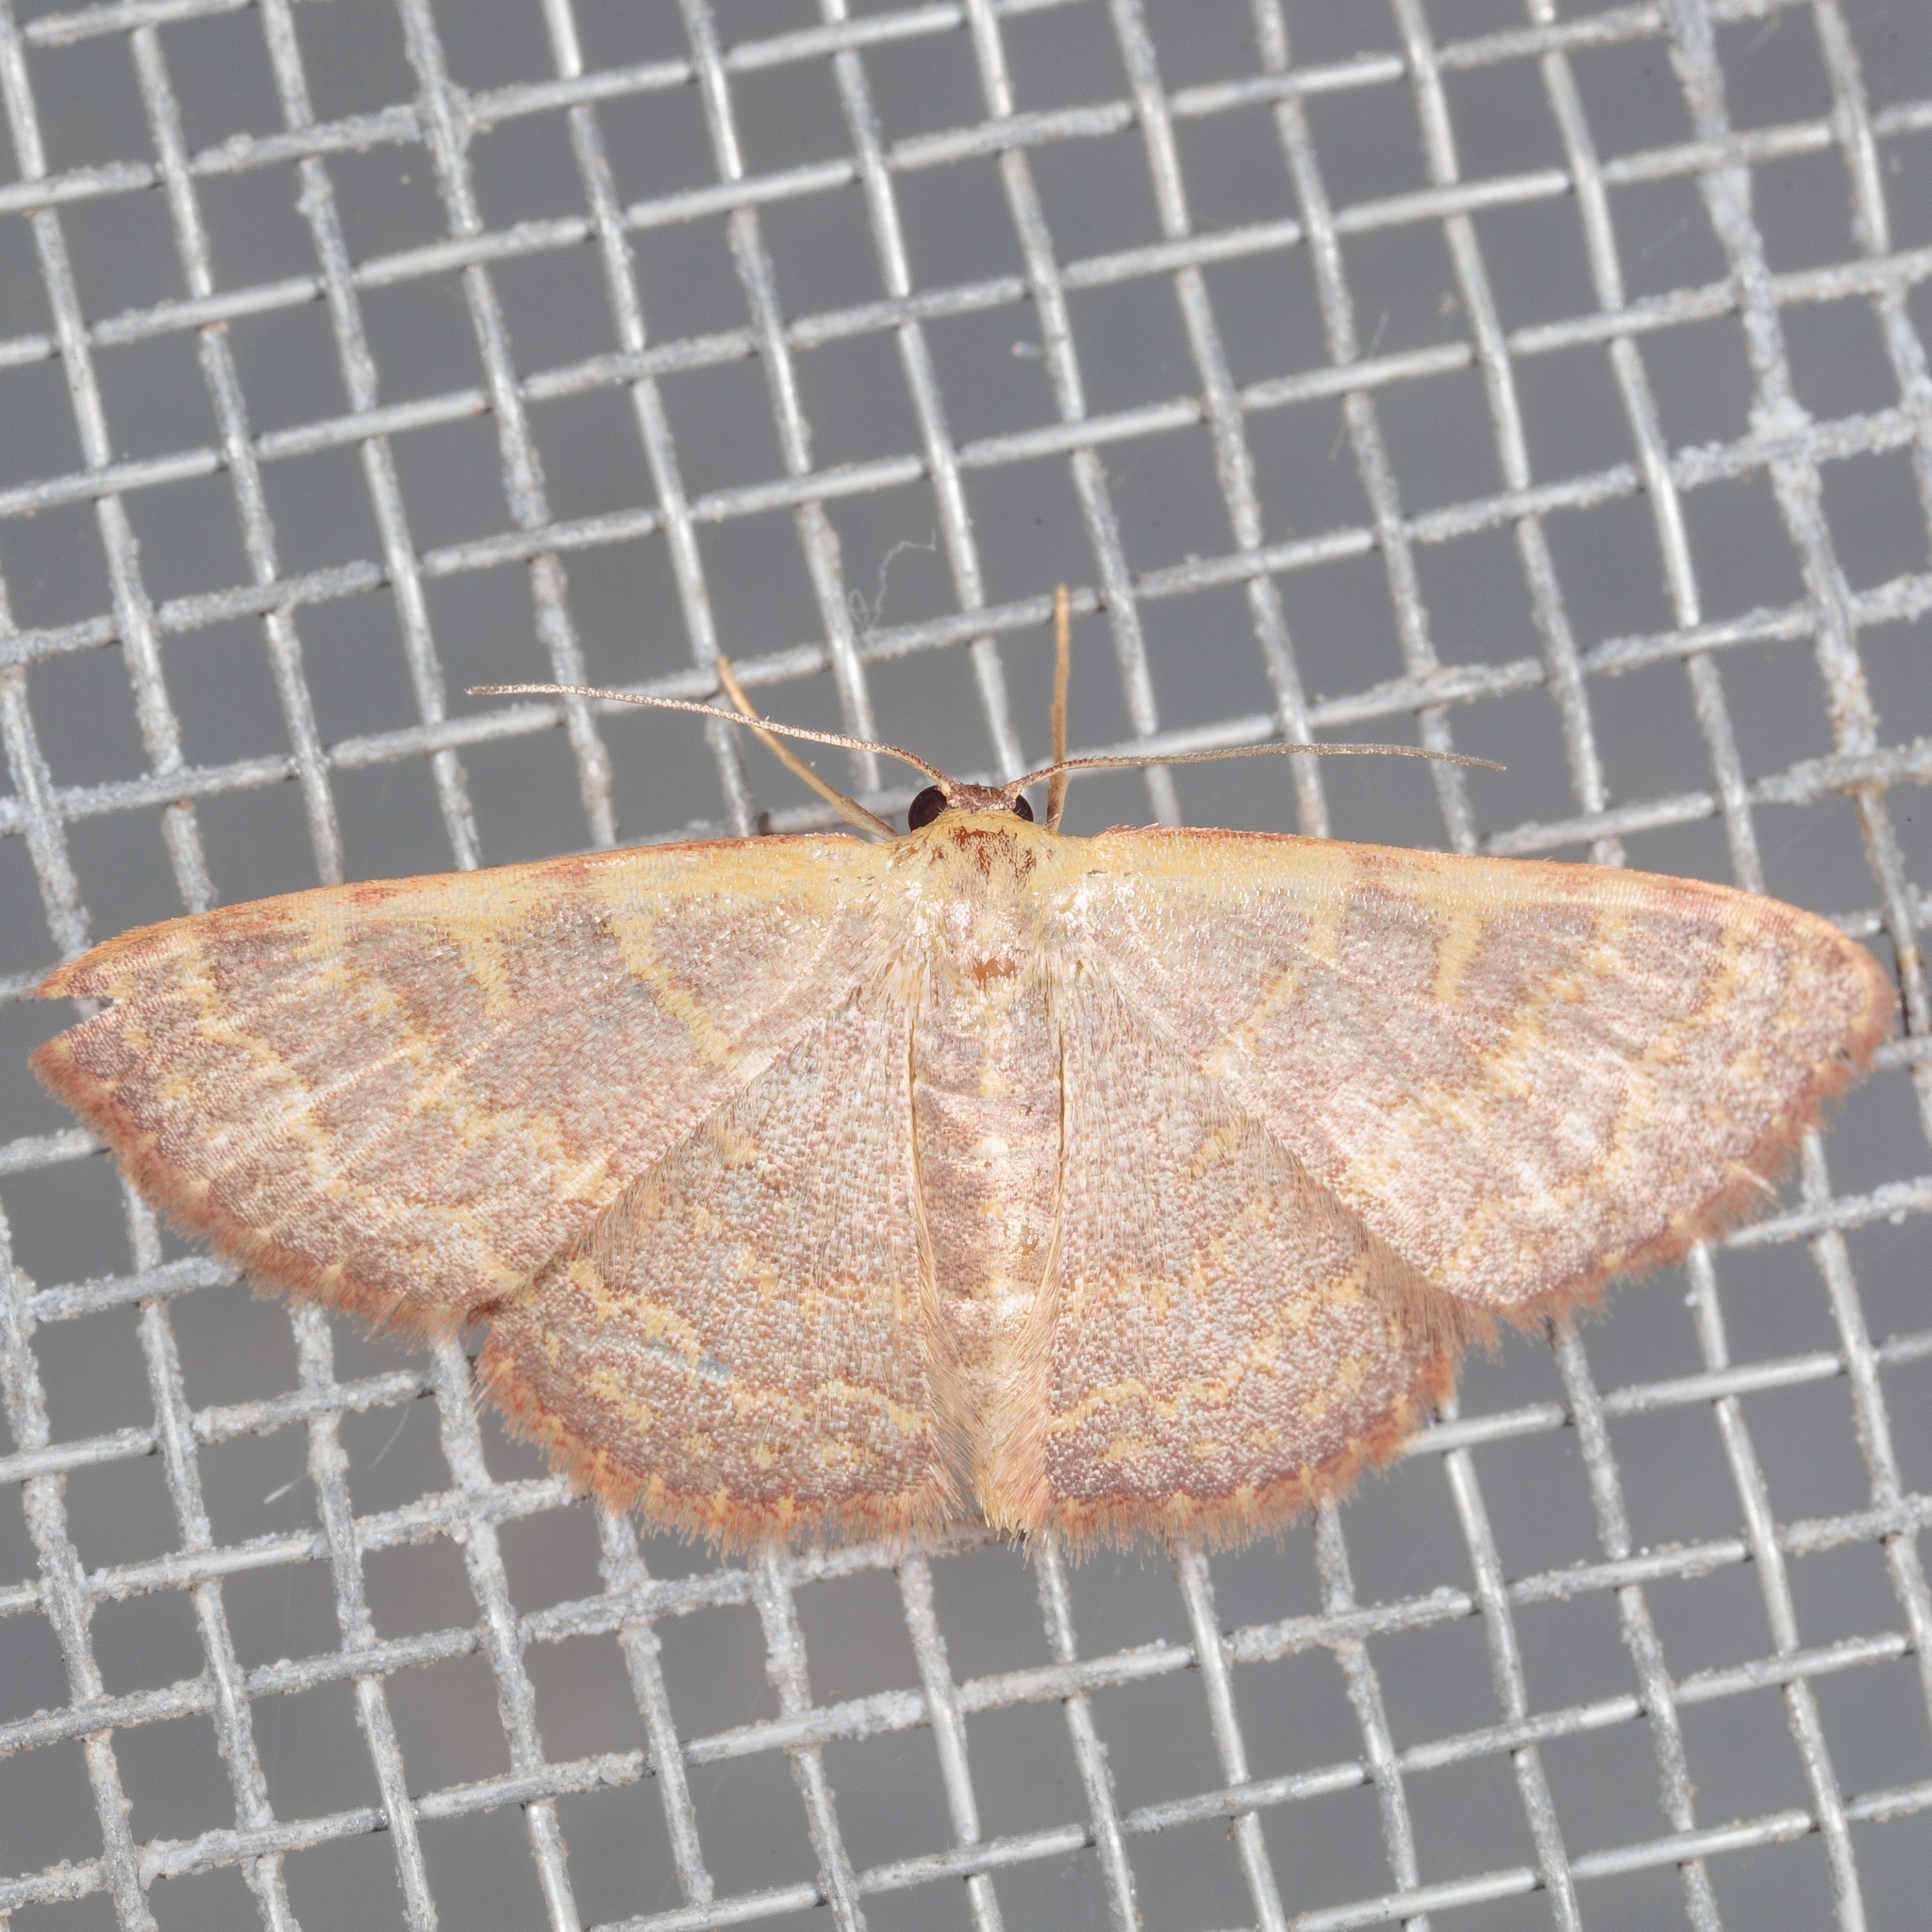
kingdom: Animalia
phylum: Arthropoda
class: Insecta
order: Lepidoptera
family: Geometridae
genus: Leptostales
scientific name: Leptostales pannaria
